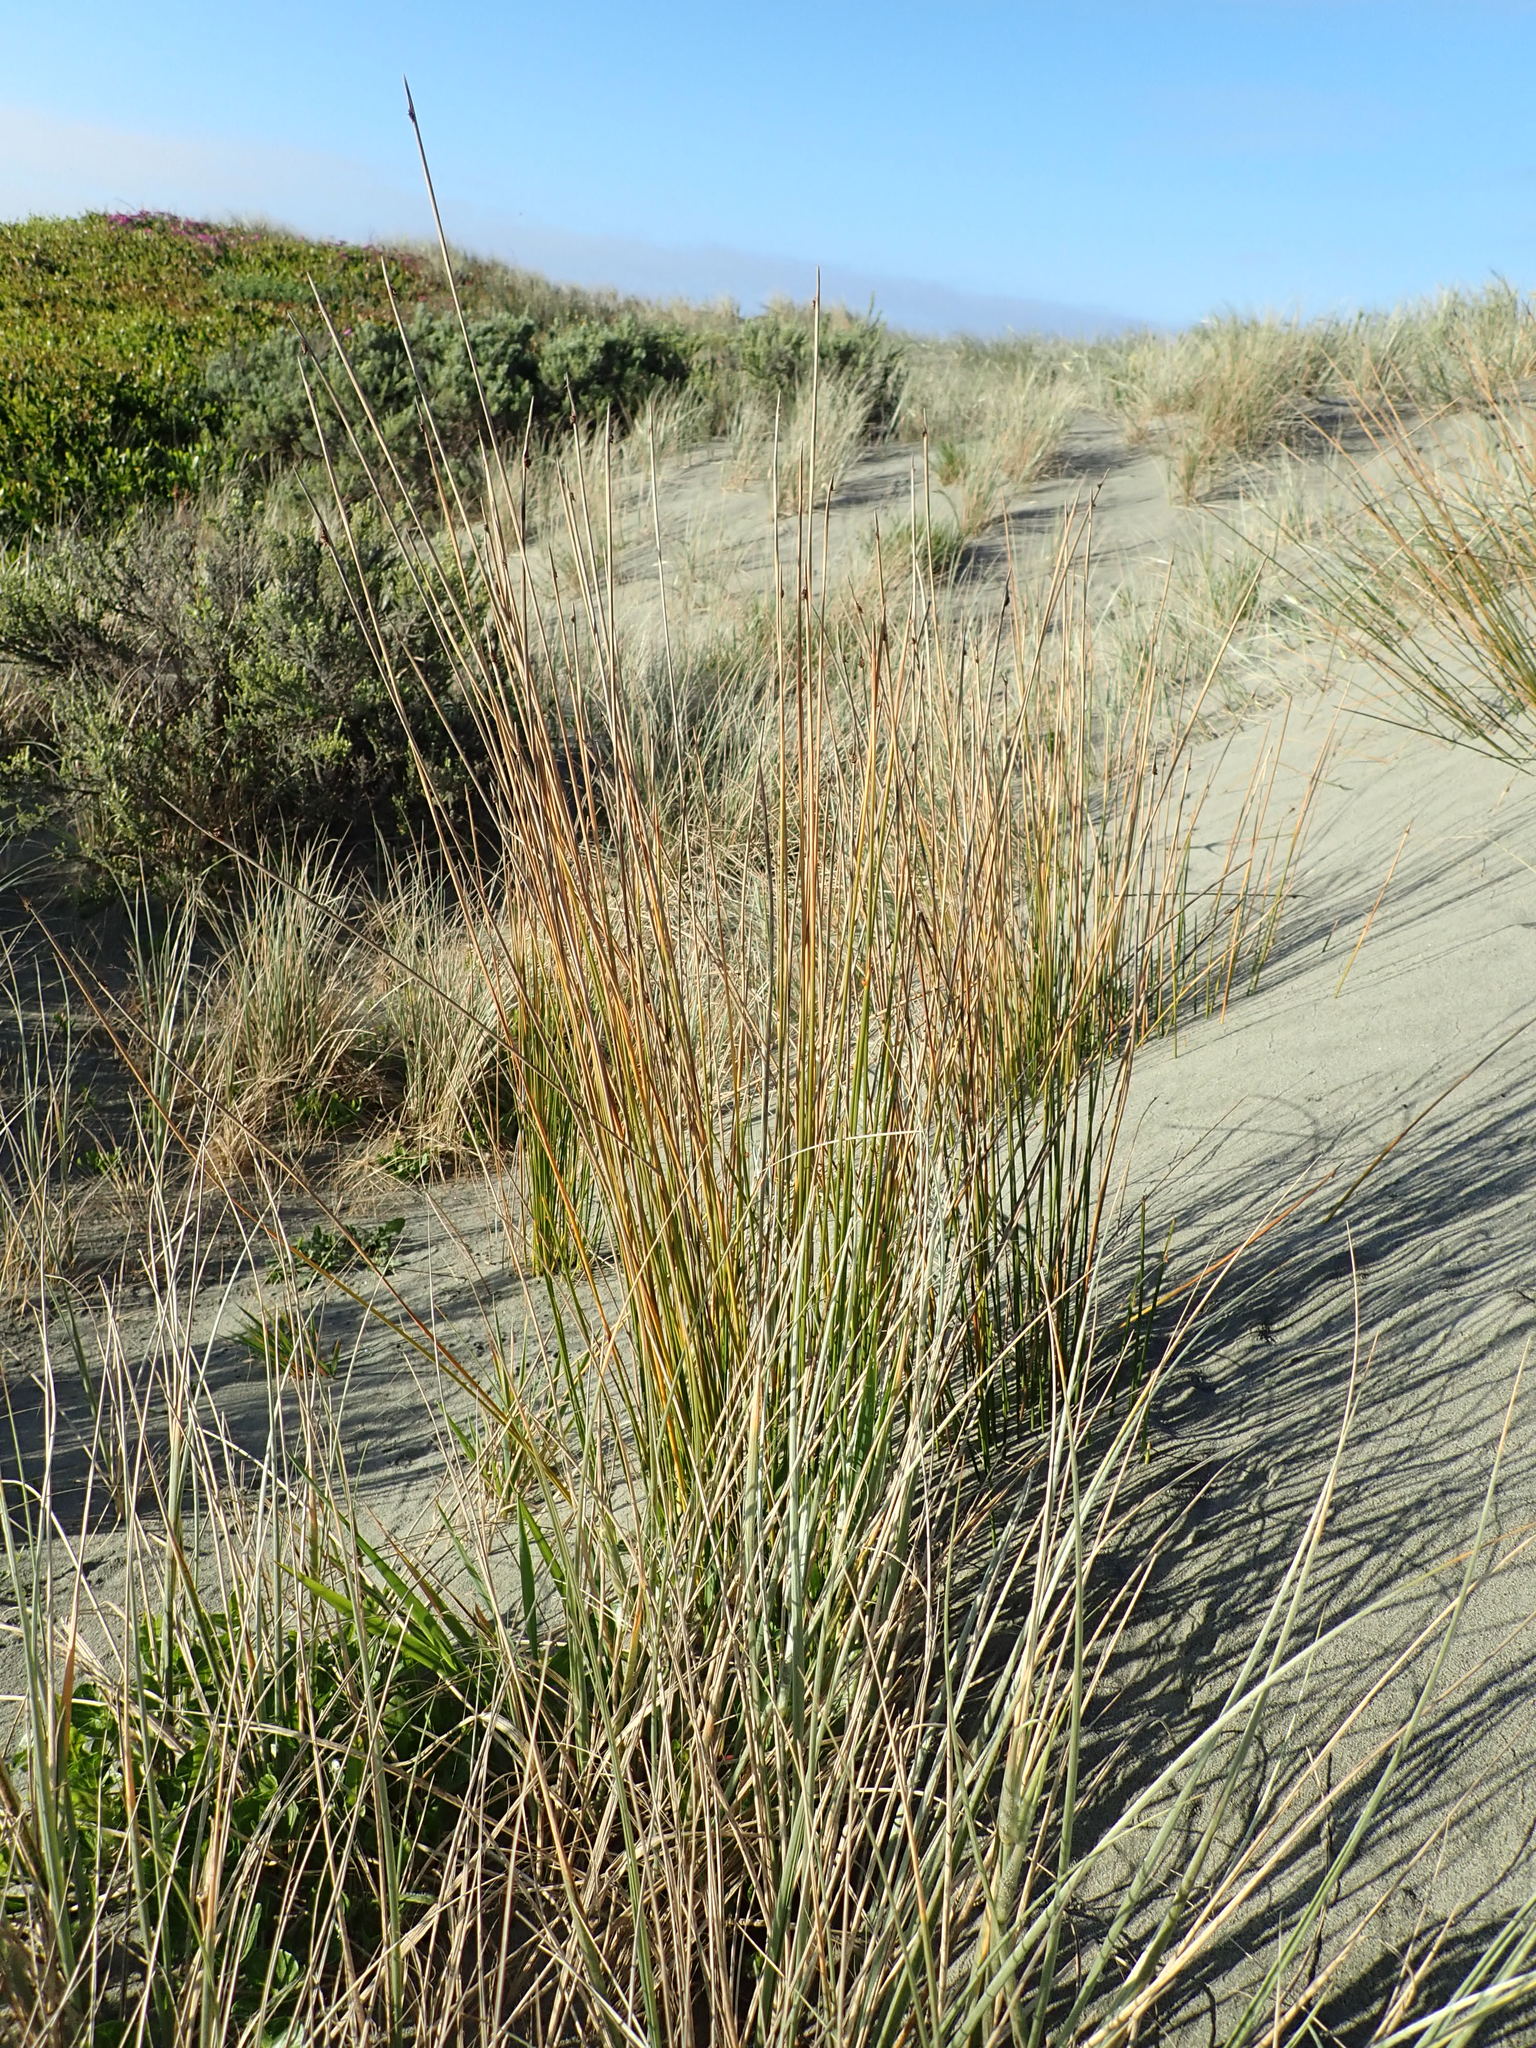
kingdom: Plantae
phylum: Tracheophyta
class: Liliopsida
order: Poales
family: Cyperaceae
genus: Ficinia
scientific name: Ficinia nodosa
